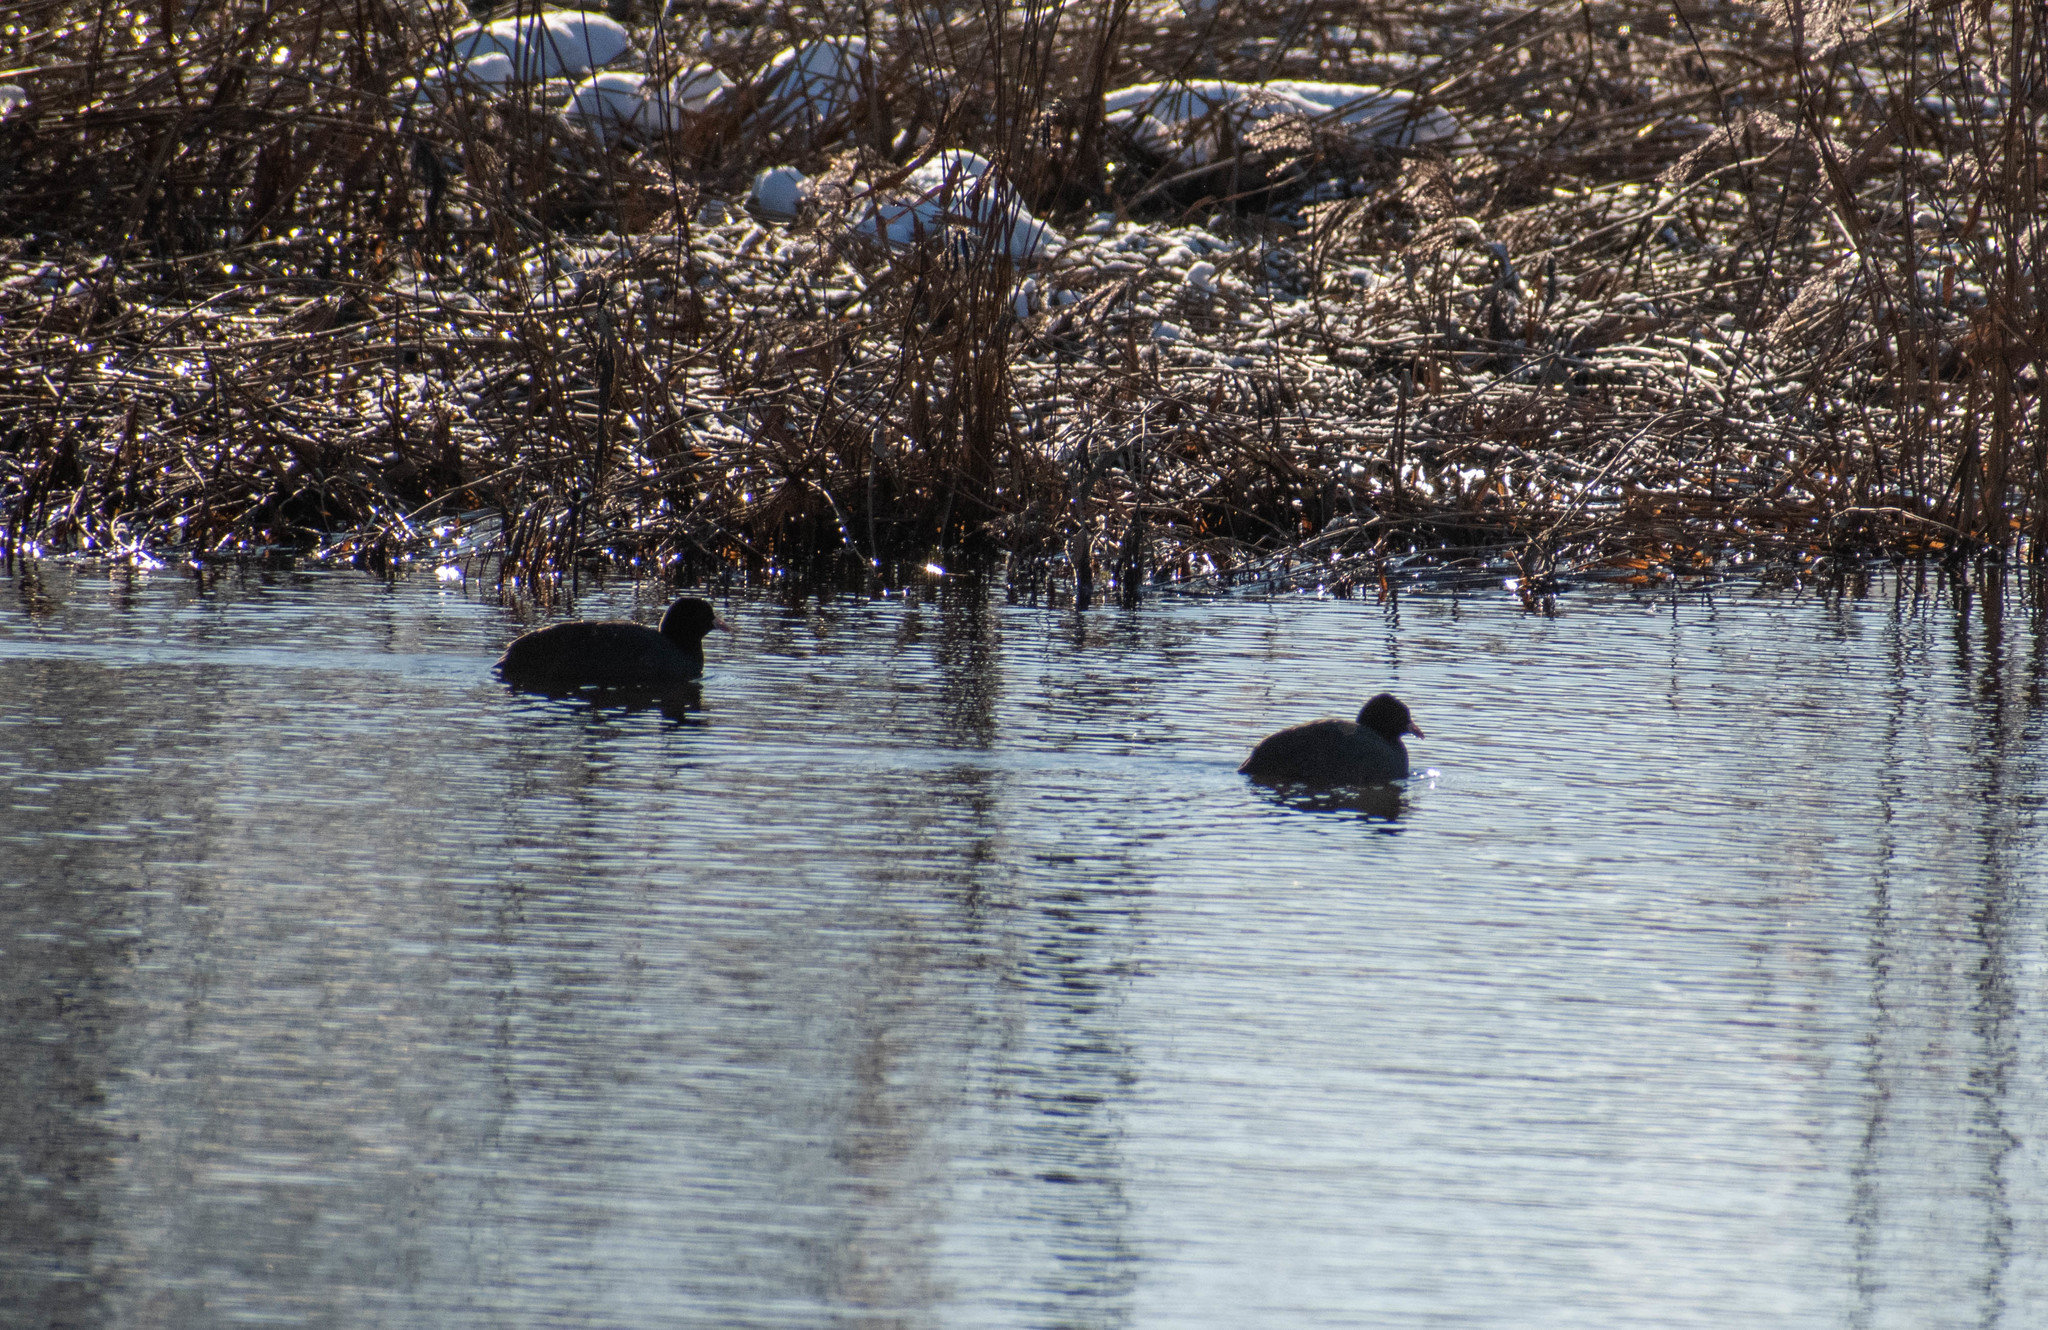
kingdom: Animalia
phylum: Chordata
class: Aves
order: Gruiformes
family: Rallidae
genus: Fulica
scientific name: Fulica atra
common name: Eurasian coot
